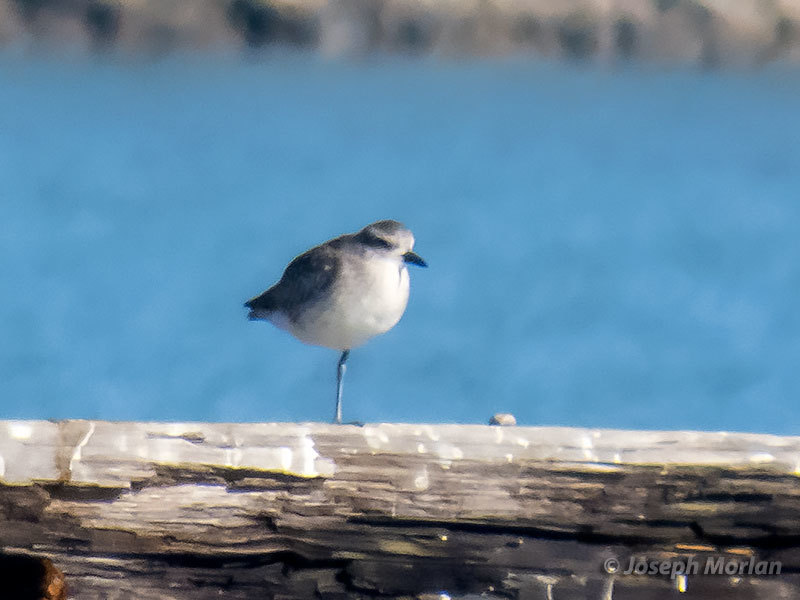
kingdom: Animalia
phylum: Chordata
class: Aves
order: Charadriiformes
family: Charadriidae
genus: Pluvialis
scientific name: Pluvialis squatarola
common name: Grey plover
